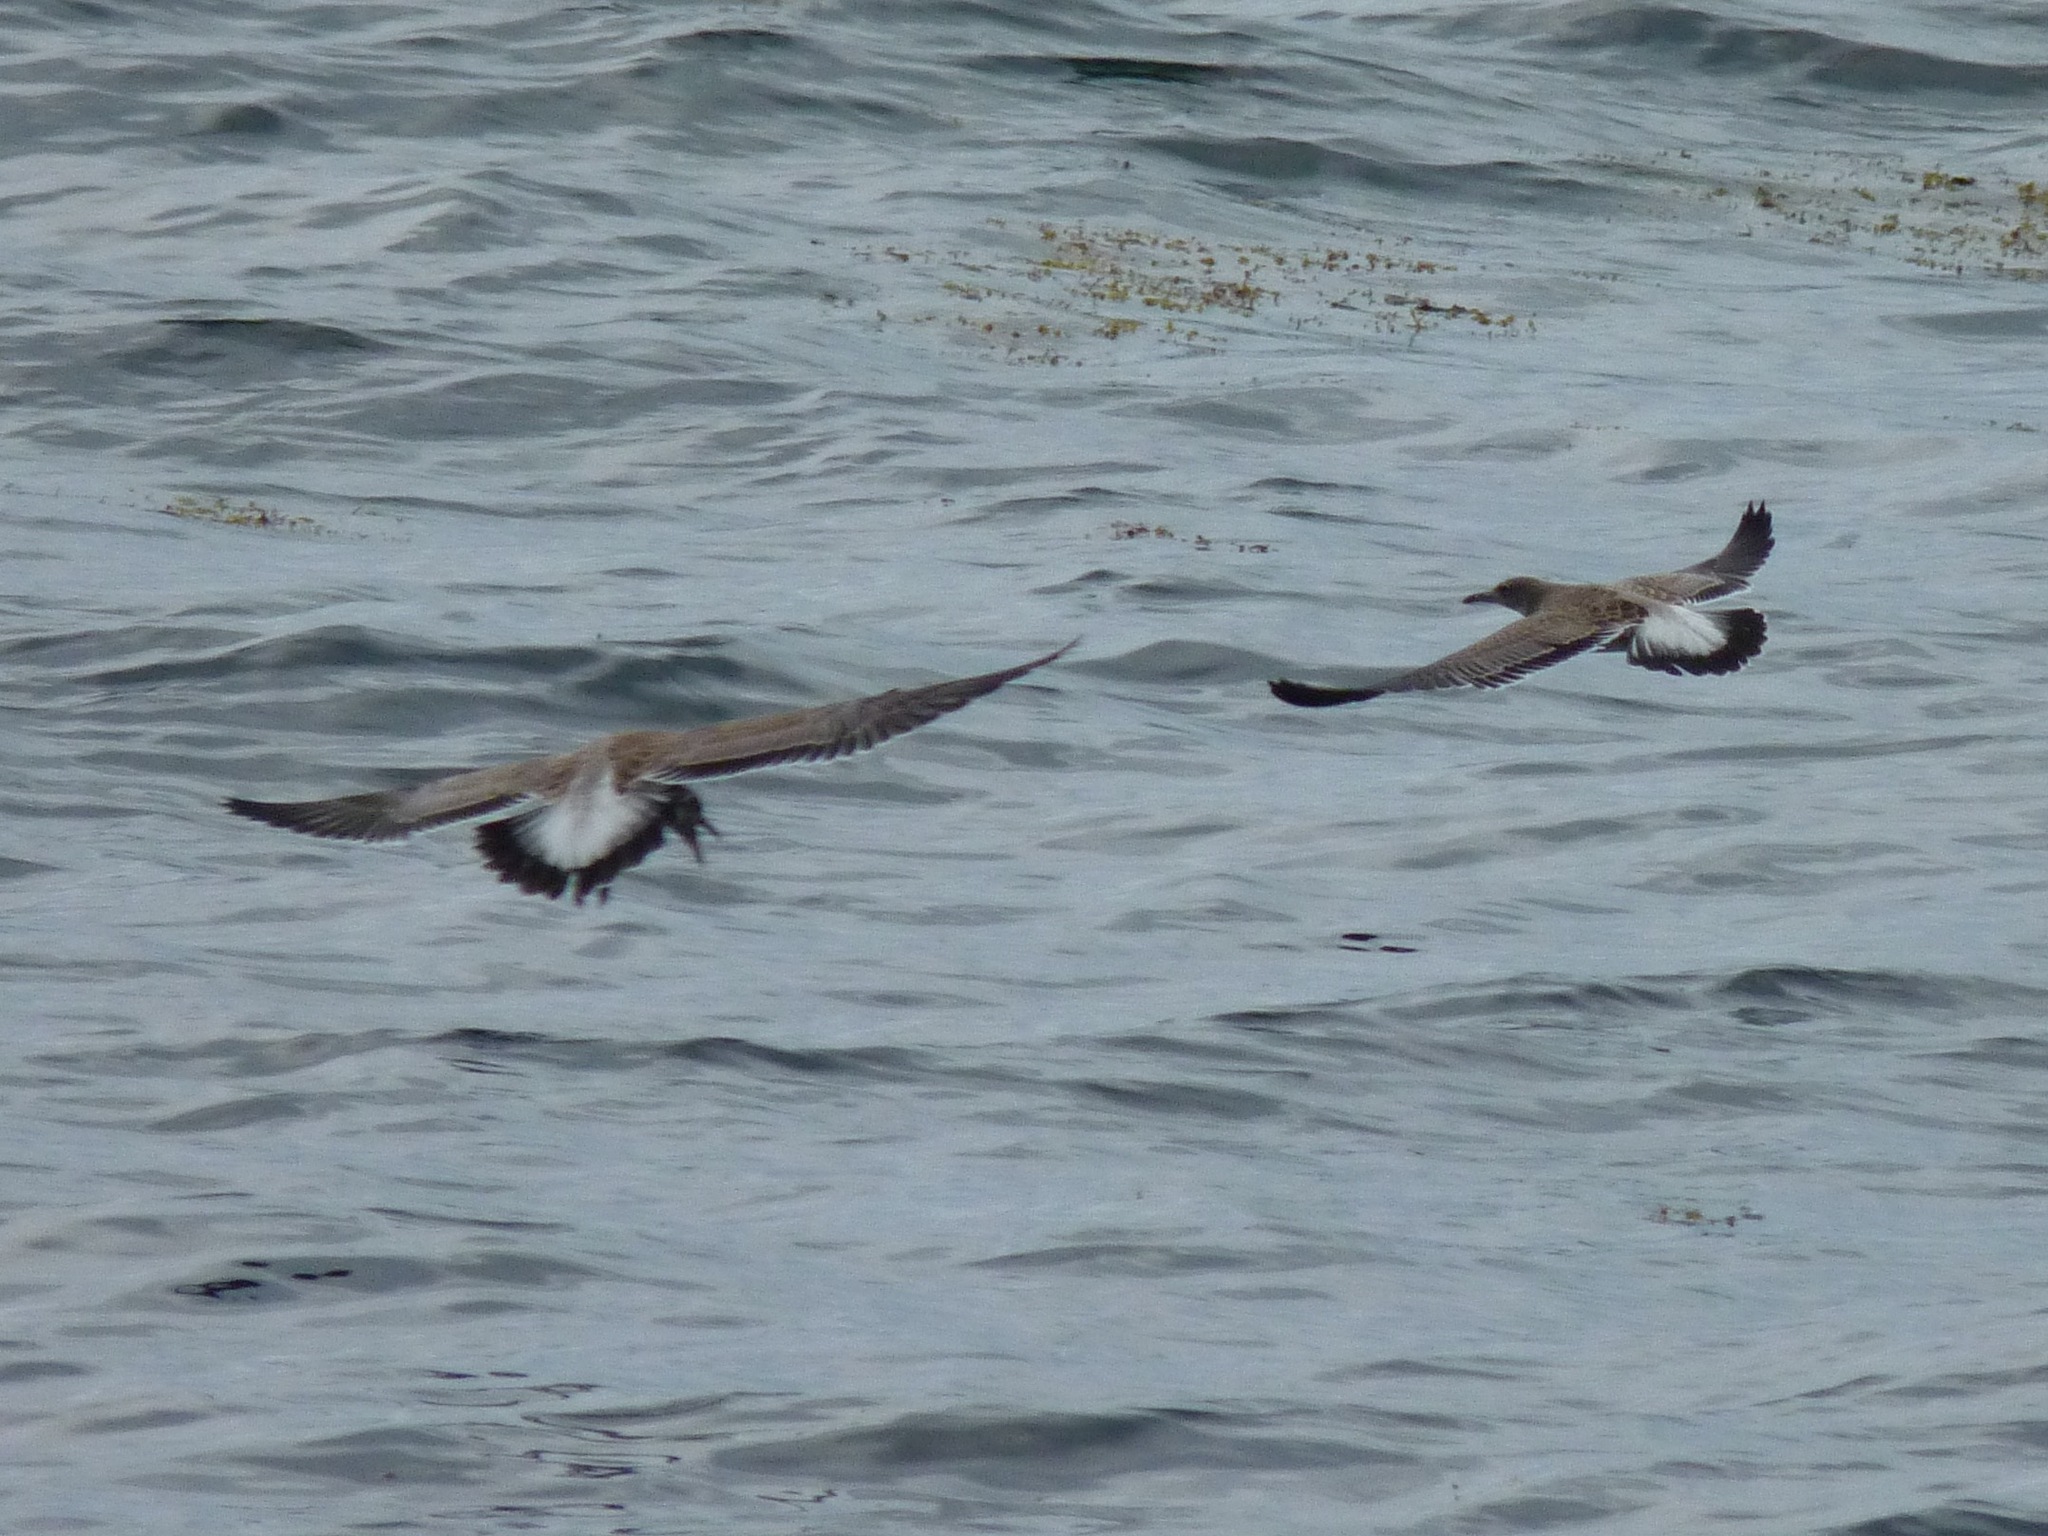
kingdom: Animalia
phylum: Chordata
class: Aves
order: Charadriiformes
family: Laridae
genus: Leucophaeus
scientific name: Leucophaeus atricilla
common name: Laughing gull
